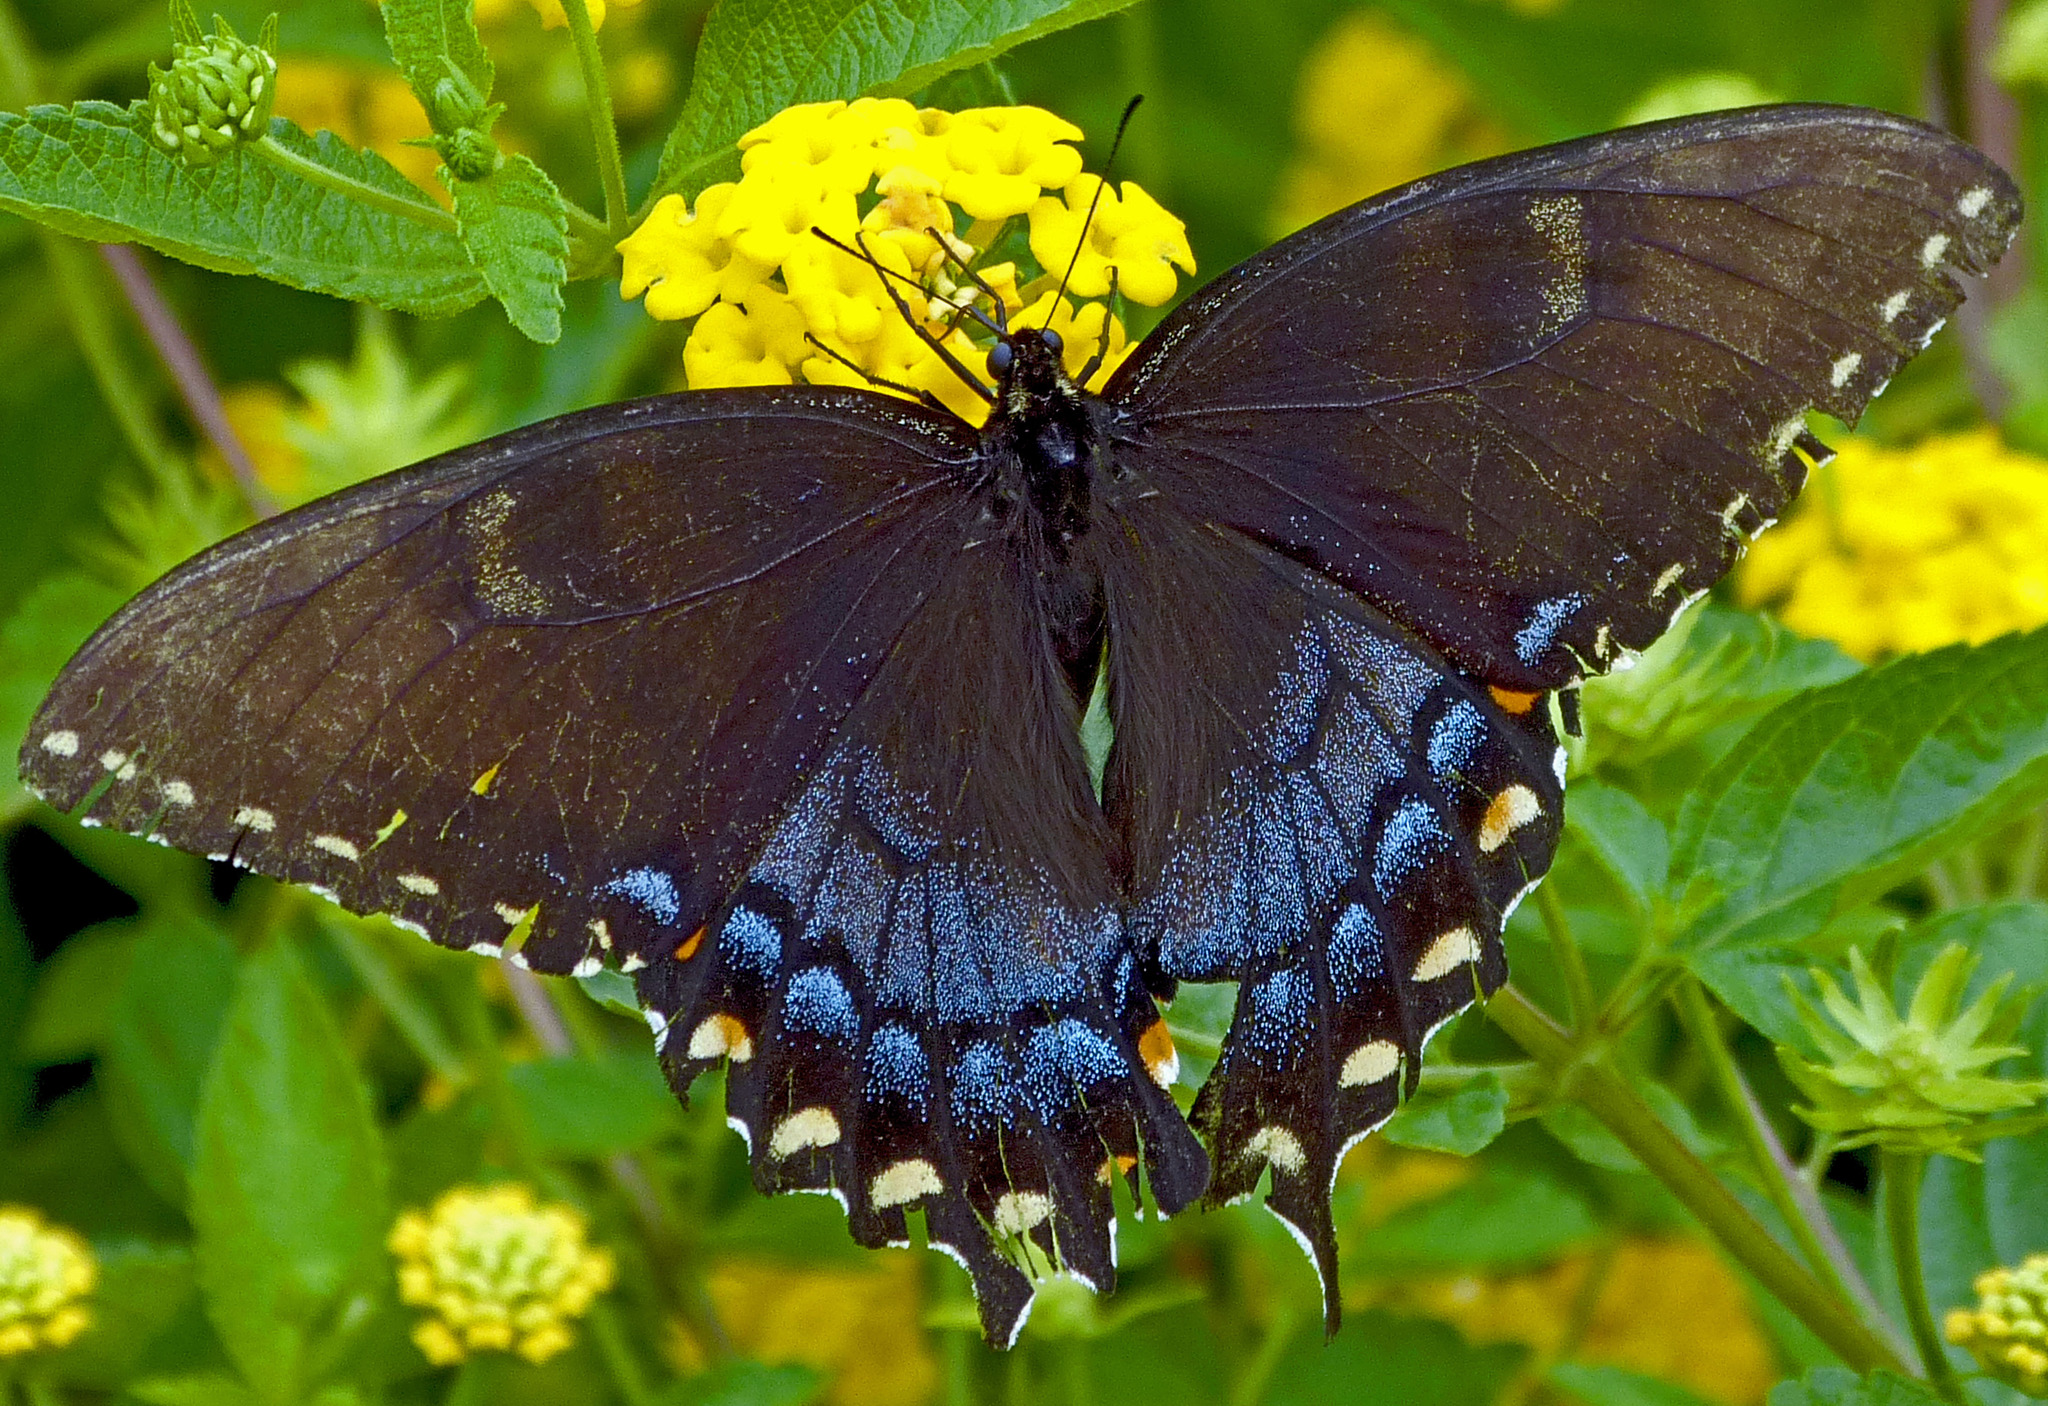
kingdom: Animalia
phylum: Arthropoda
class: Insecta
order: Lepidoptera
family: Papilionidae
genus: Papilio
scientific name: Papilio glaucus
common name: Tiger swallowtail
